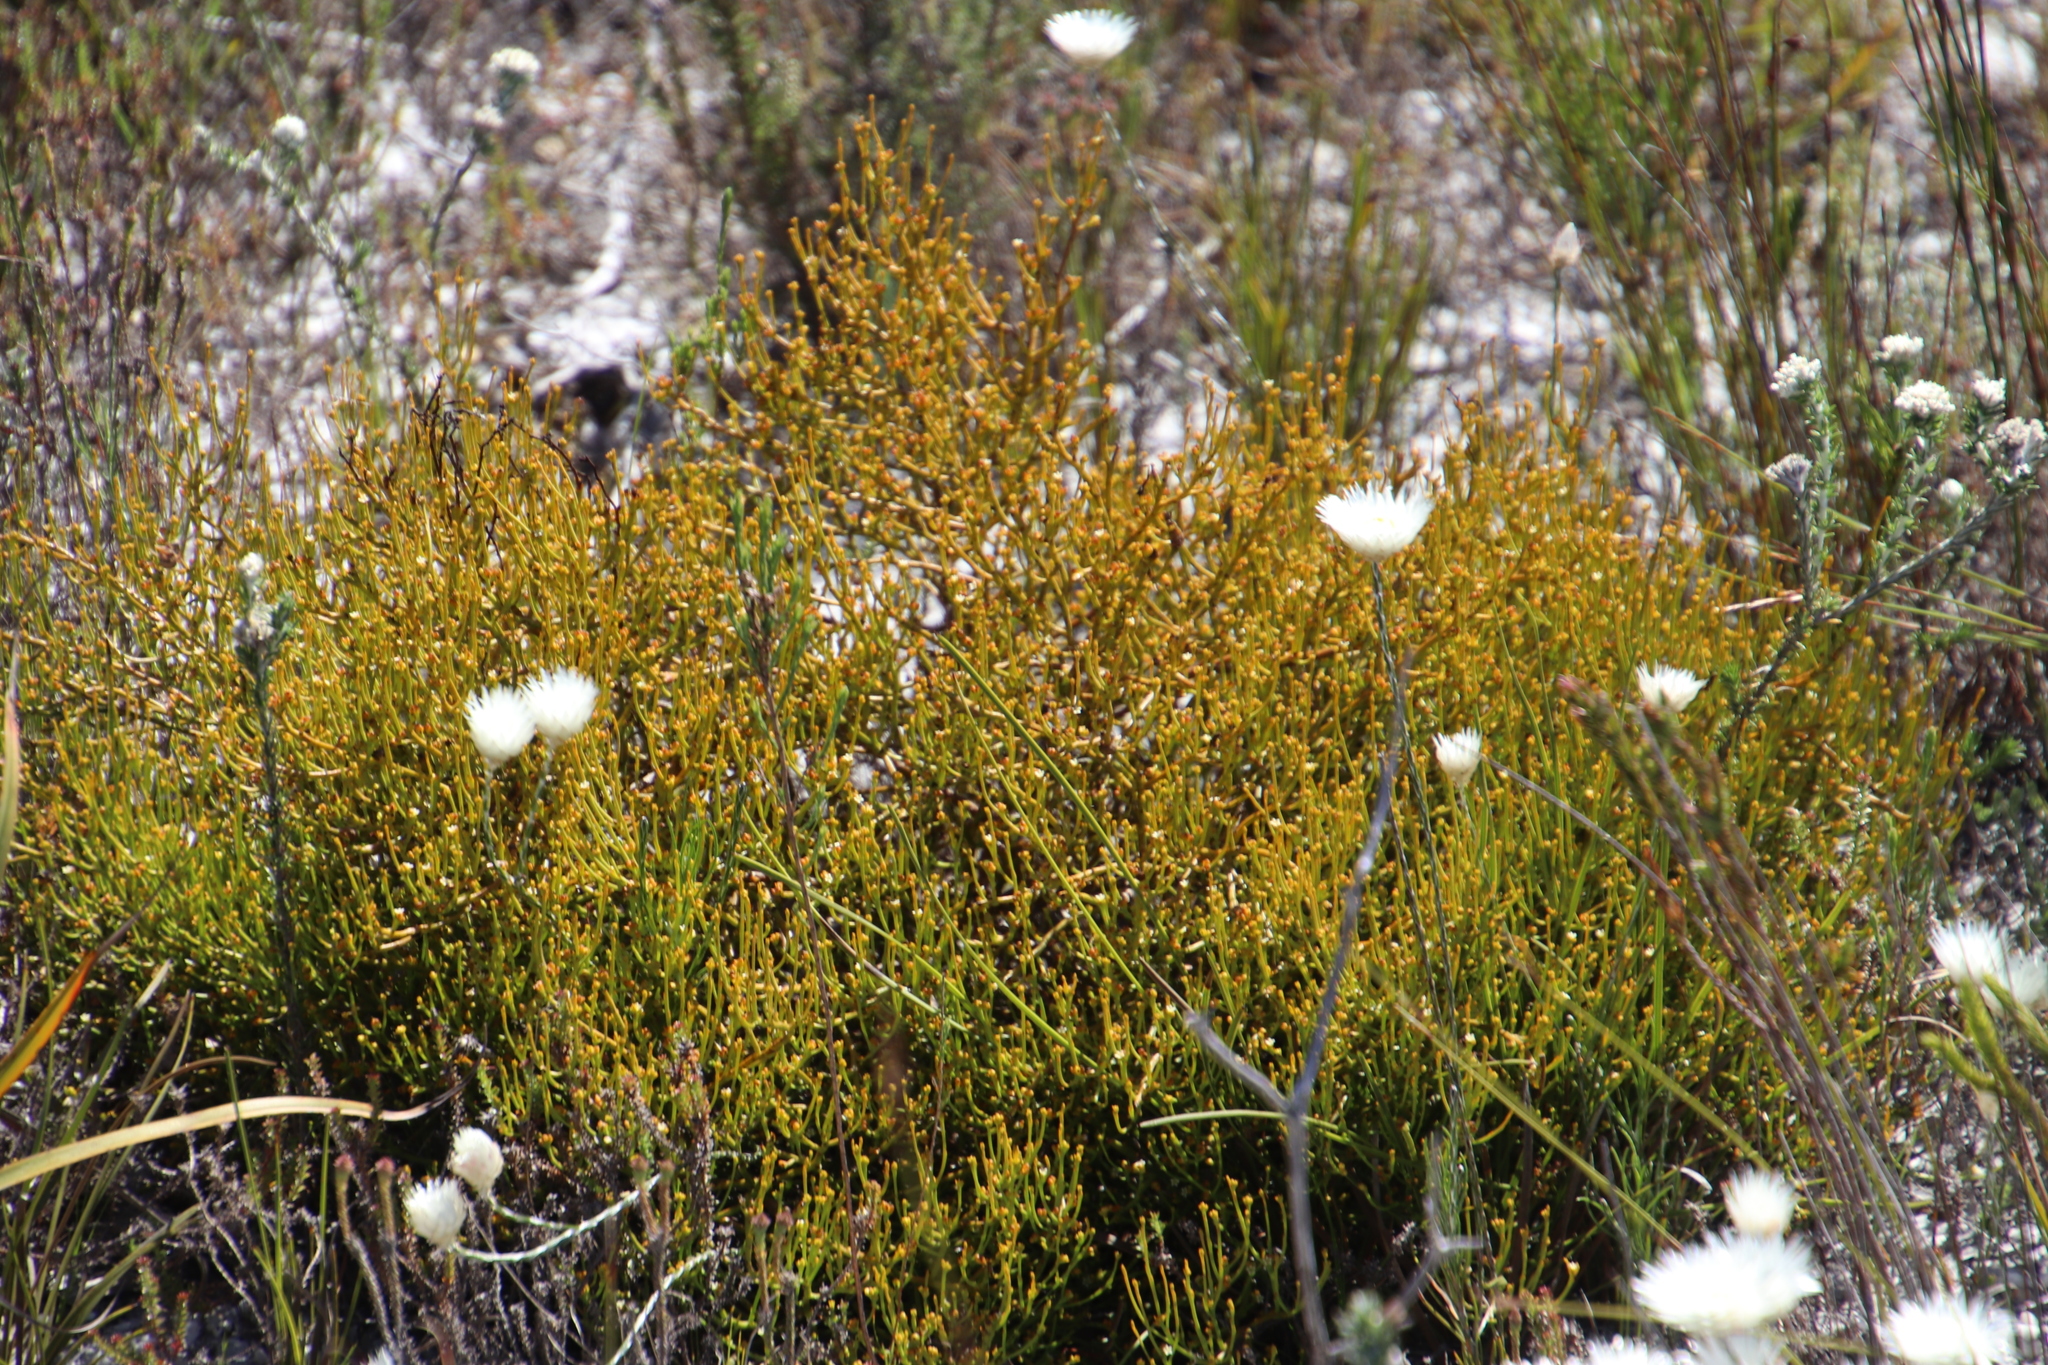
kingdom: Plantae
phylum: Tracheophyta
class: Magnoliopsida
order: Asterales
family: Asteraceae
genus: Edmondia
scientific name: Edmondia sesamoides
